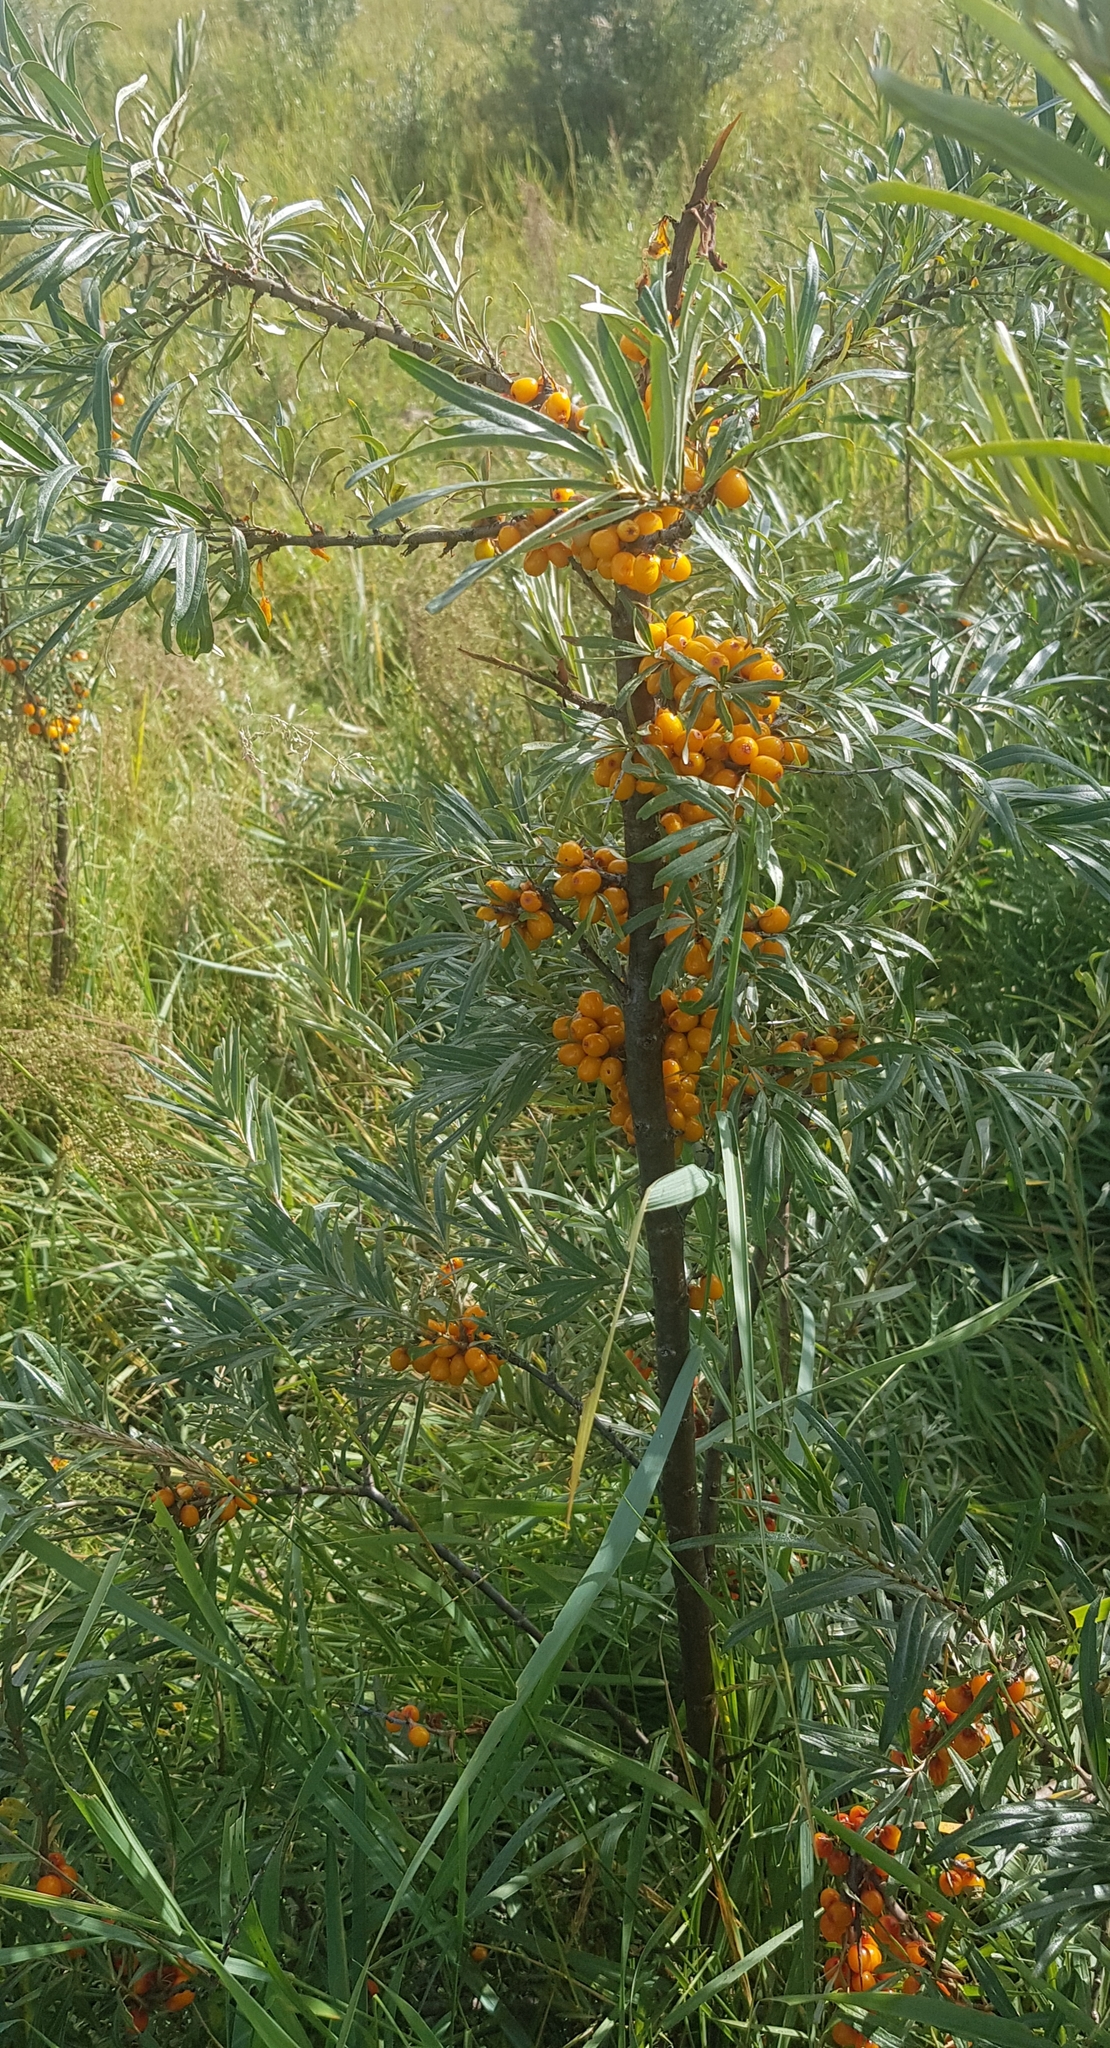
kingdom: Plantae
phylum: Tracheophyta
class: Magnoliopsida
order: Rosales
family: Elaeagnaceae
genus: Hippophae
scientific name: Hippophae rhamnoides
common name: Sea-buckthorn
